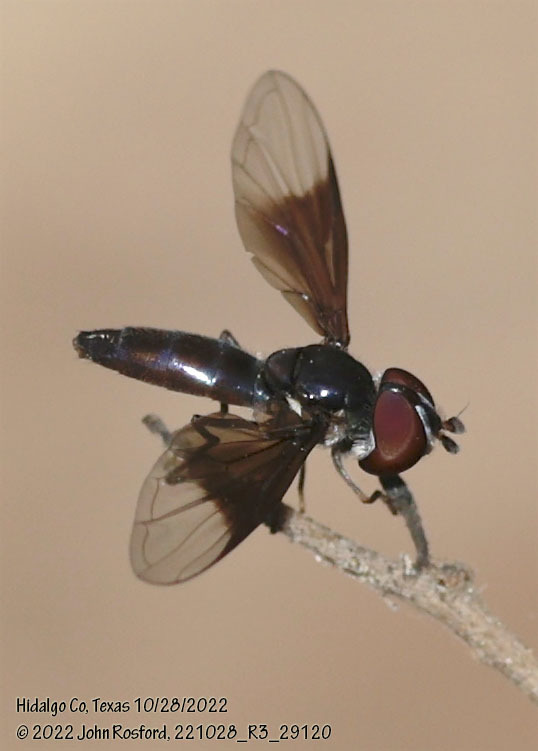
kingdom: Animalia
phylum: Arthropoda
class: Insecta
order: Diptera
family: Syrphidae
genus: Ocyptamus
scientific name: Ocyptamus dimidiatus
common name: Syrphid fly
